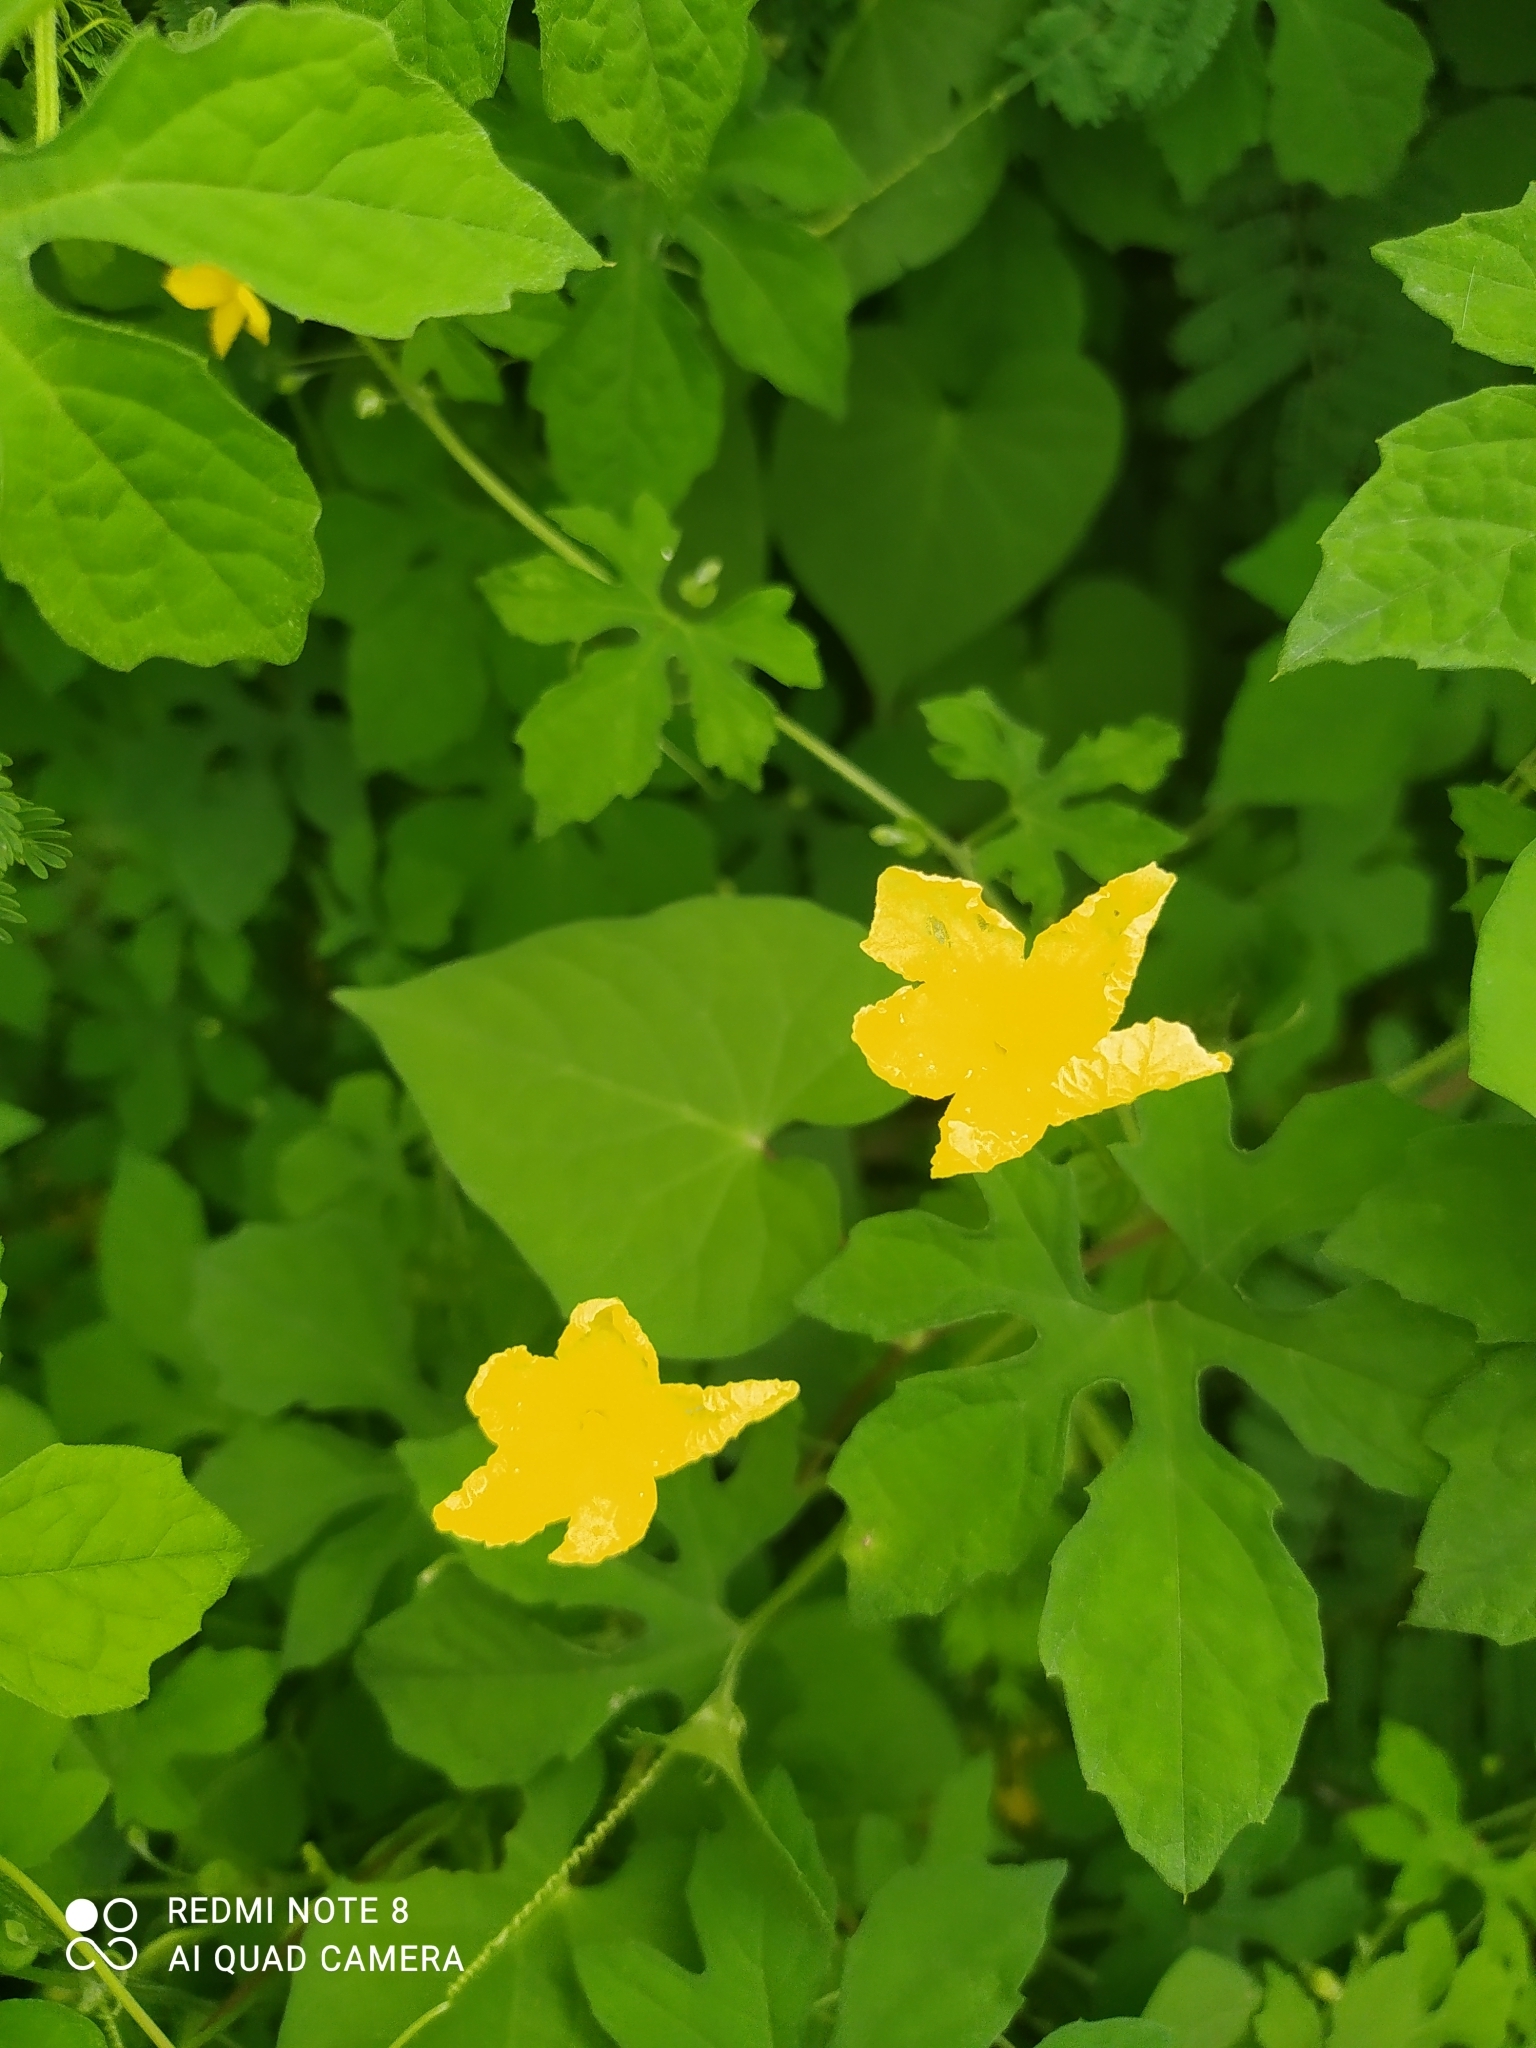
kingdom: Plantae
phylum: Tracheophyta
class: Magnoliopsida
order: Cucurbitales
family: Cucurbitaceae
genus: Momordica
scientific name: Momordica charantia
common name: Balsampear
